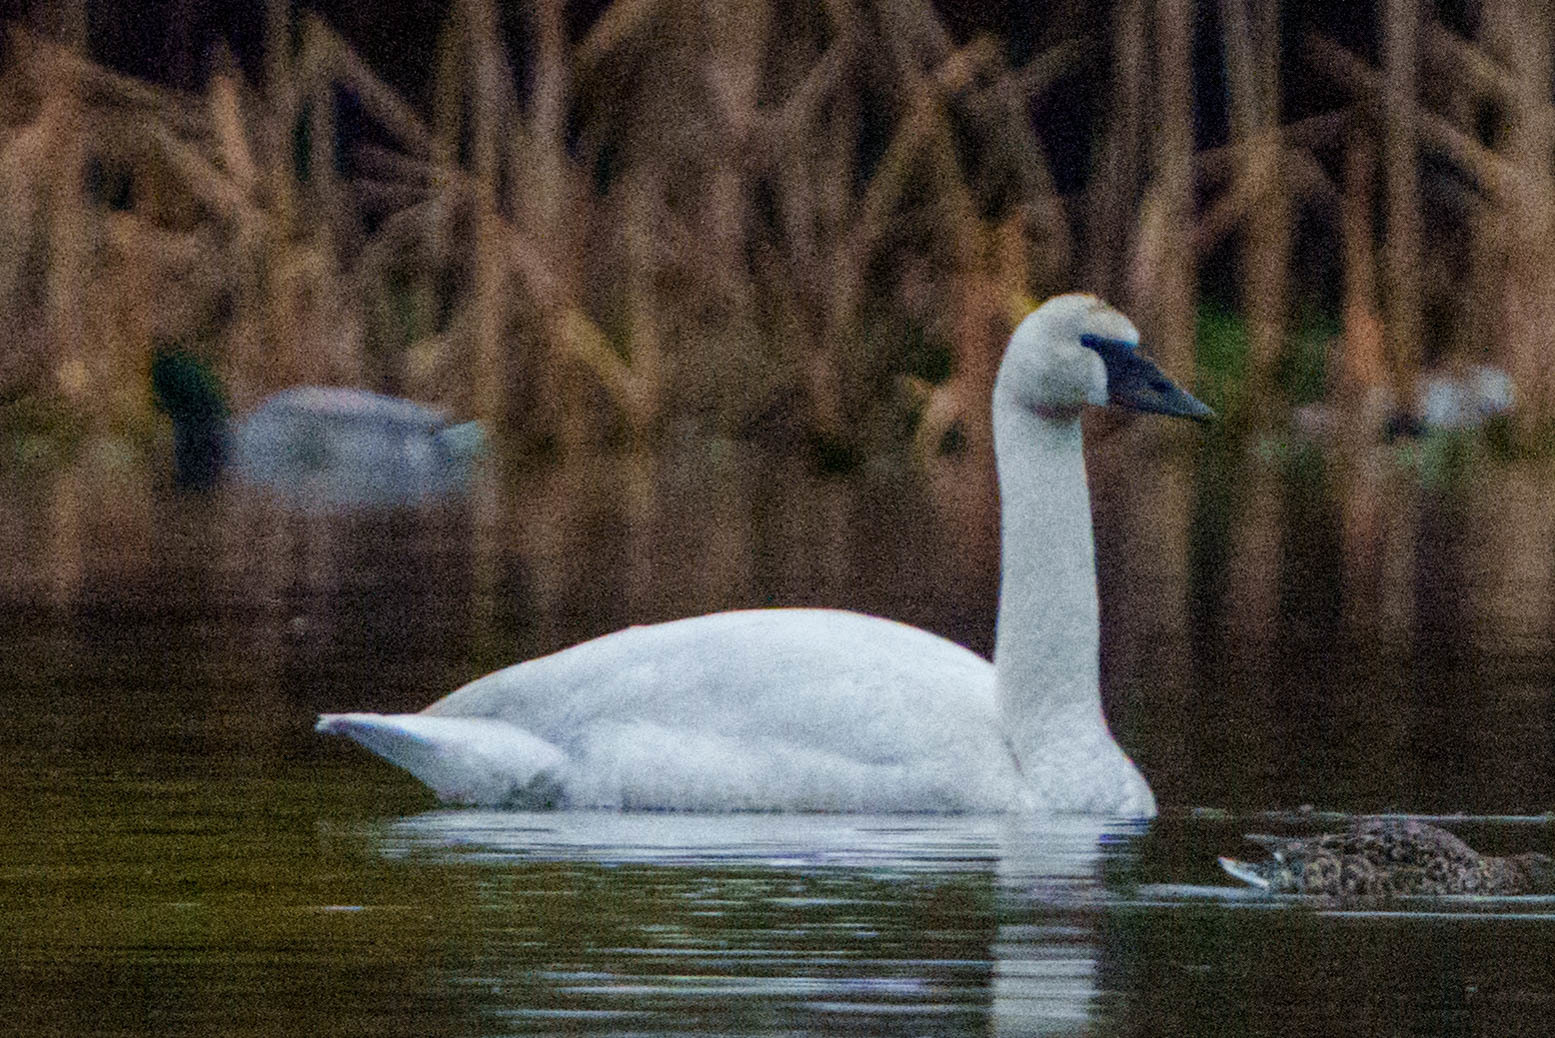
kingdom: Animalia
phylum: Chordata
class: Aves
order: Anseriformes
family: Anatidae
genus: Cygnus
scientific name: Cygnus buccinator
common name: Trumpeter swan
